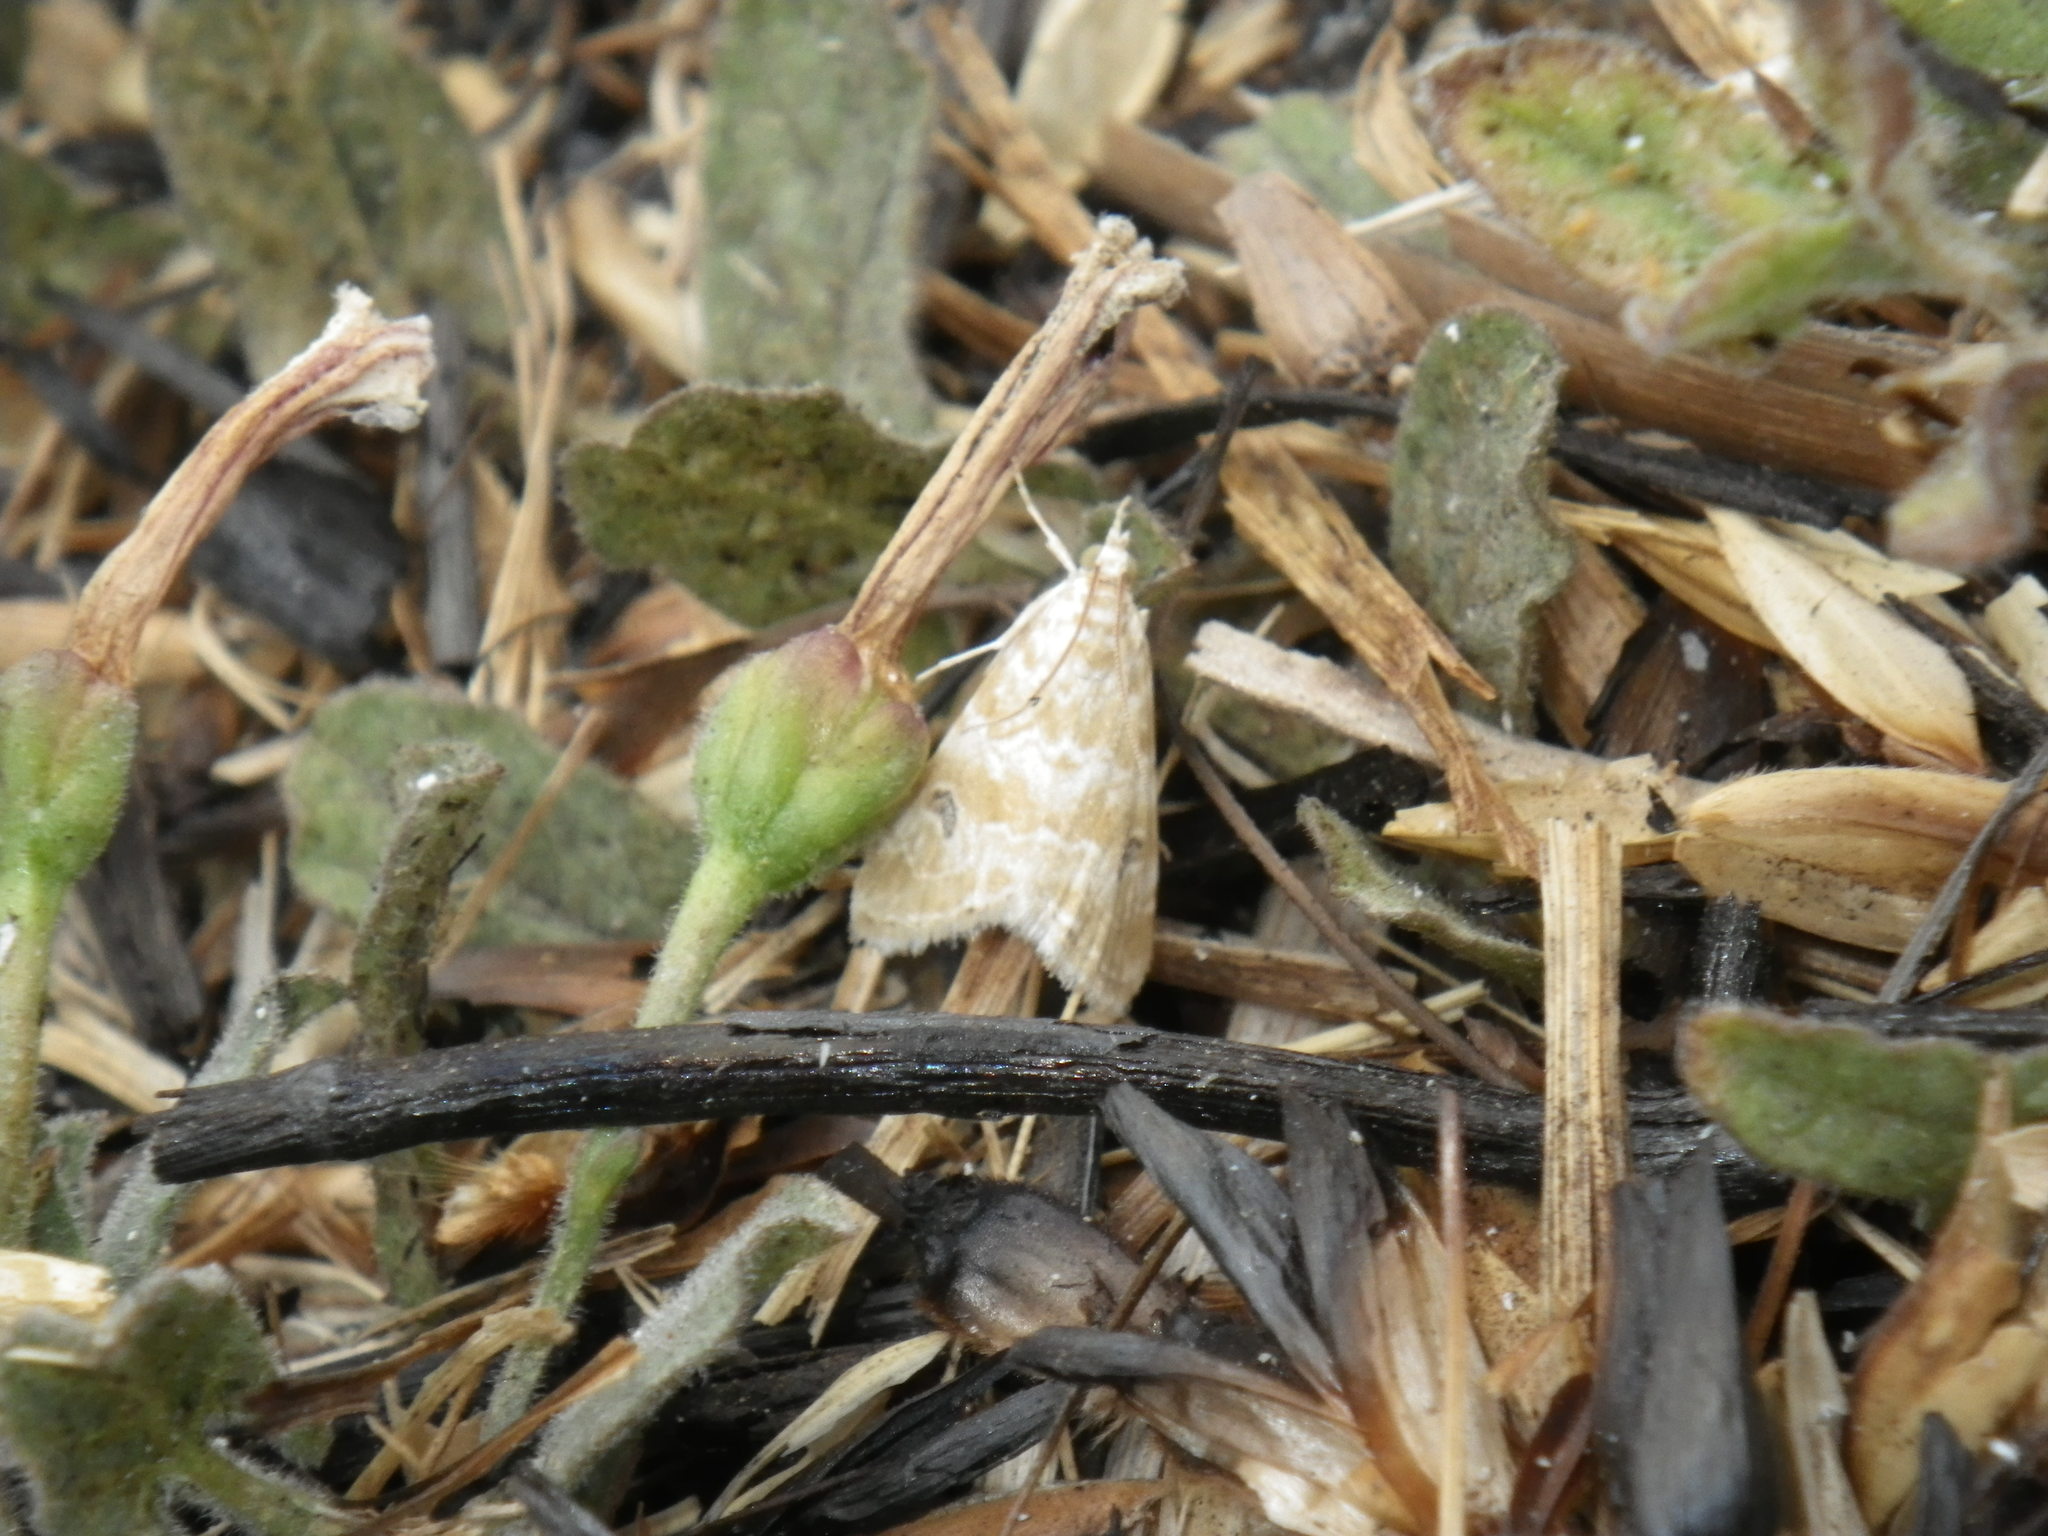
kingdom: Animalia
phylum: Arthropoda
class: Insecta
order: Lepidoptera
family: Crambidae
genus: Hellula
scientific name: Hellula rogatalis
